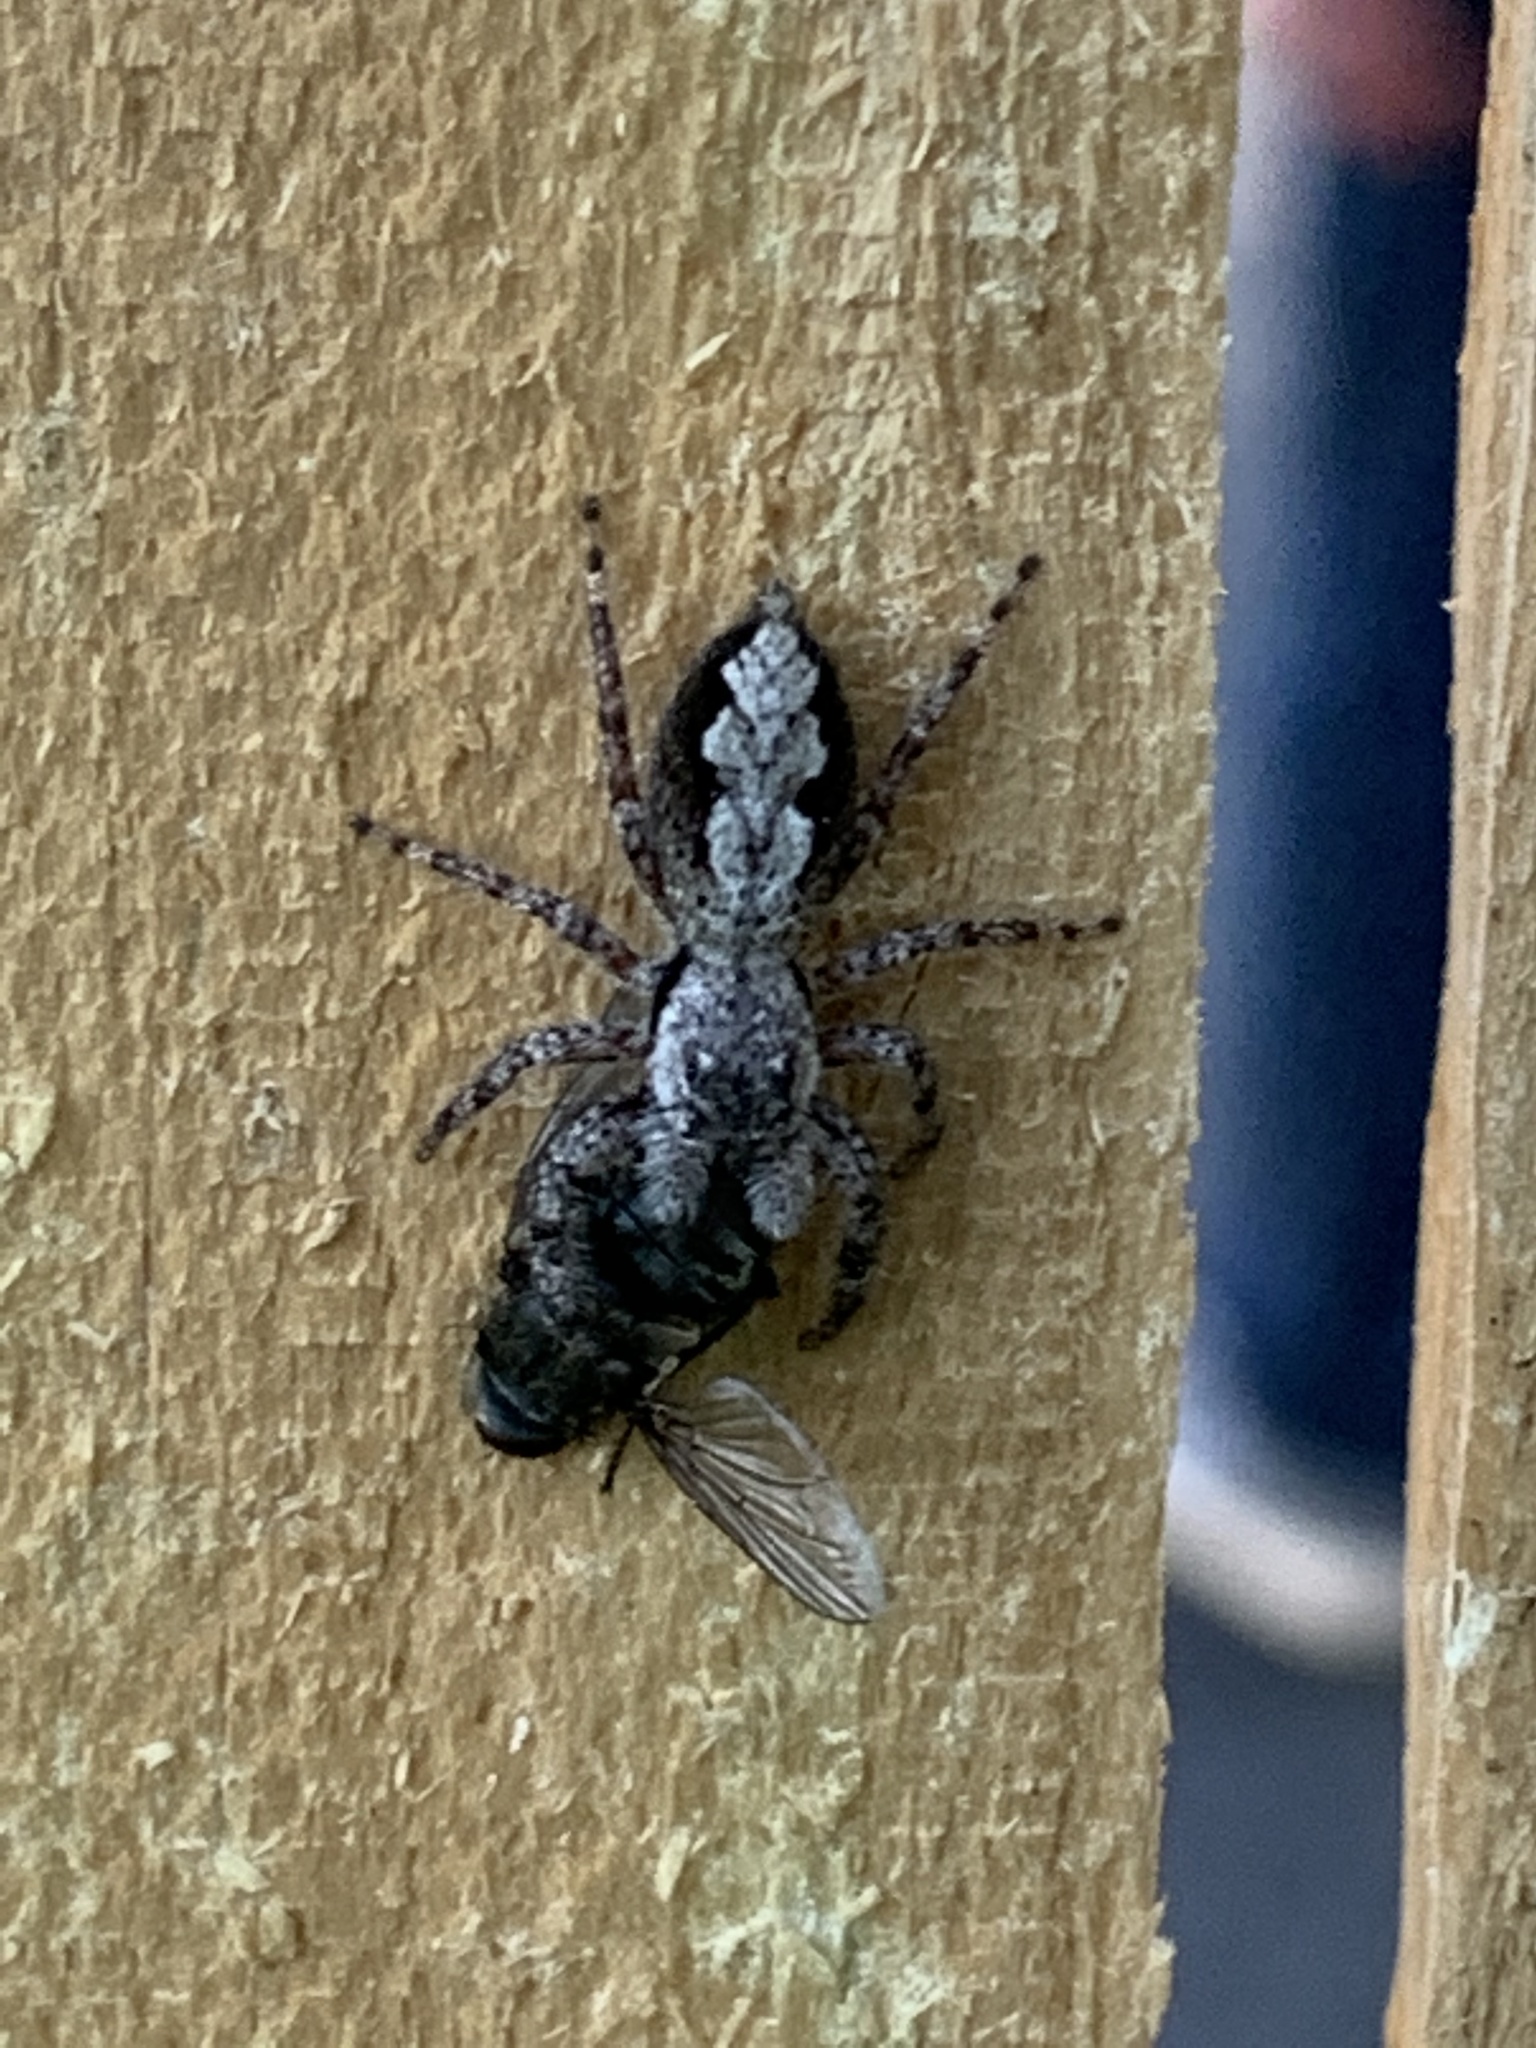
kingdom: Animalia
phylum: Arthropoda
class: Arachnida
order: Araneae
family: Salticidae
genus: Platycryptus
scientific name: Platycryptus undatus
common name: Tan jumping spider
